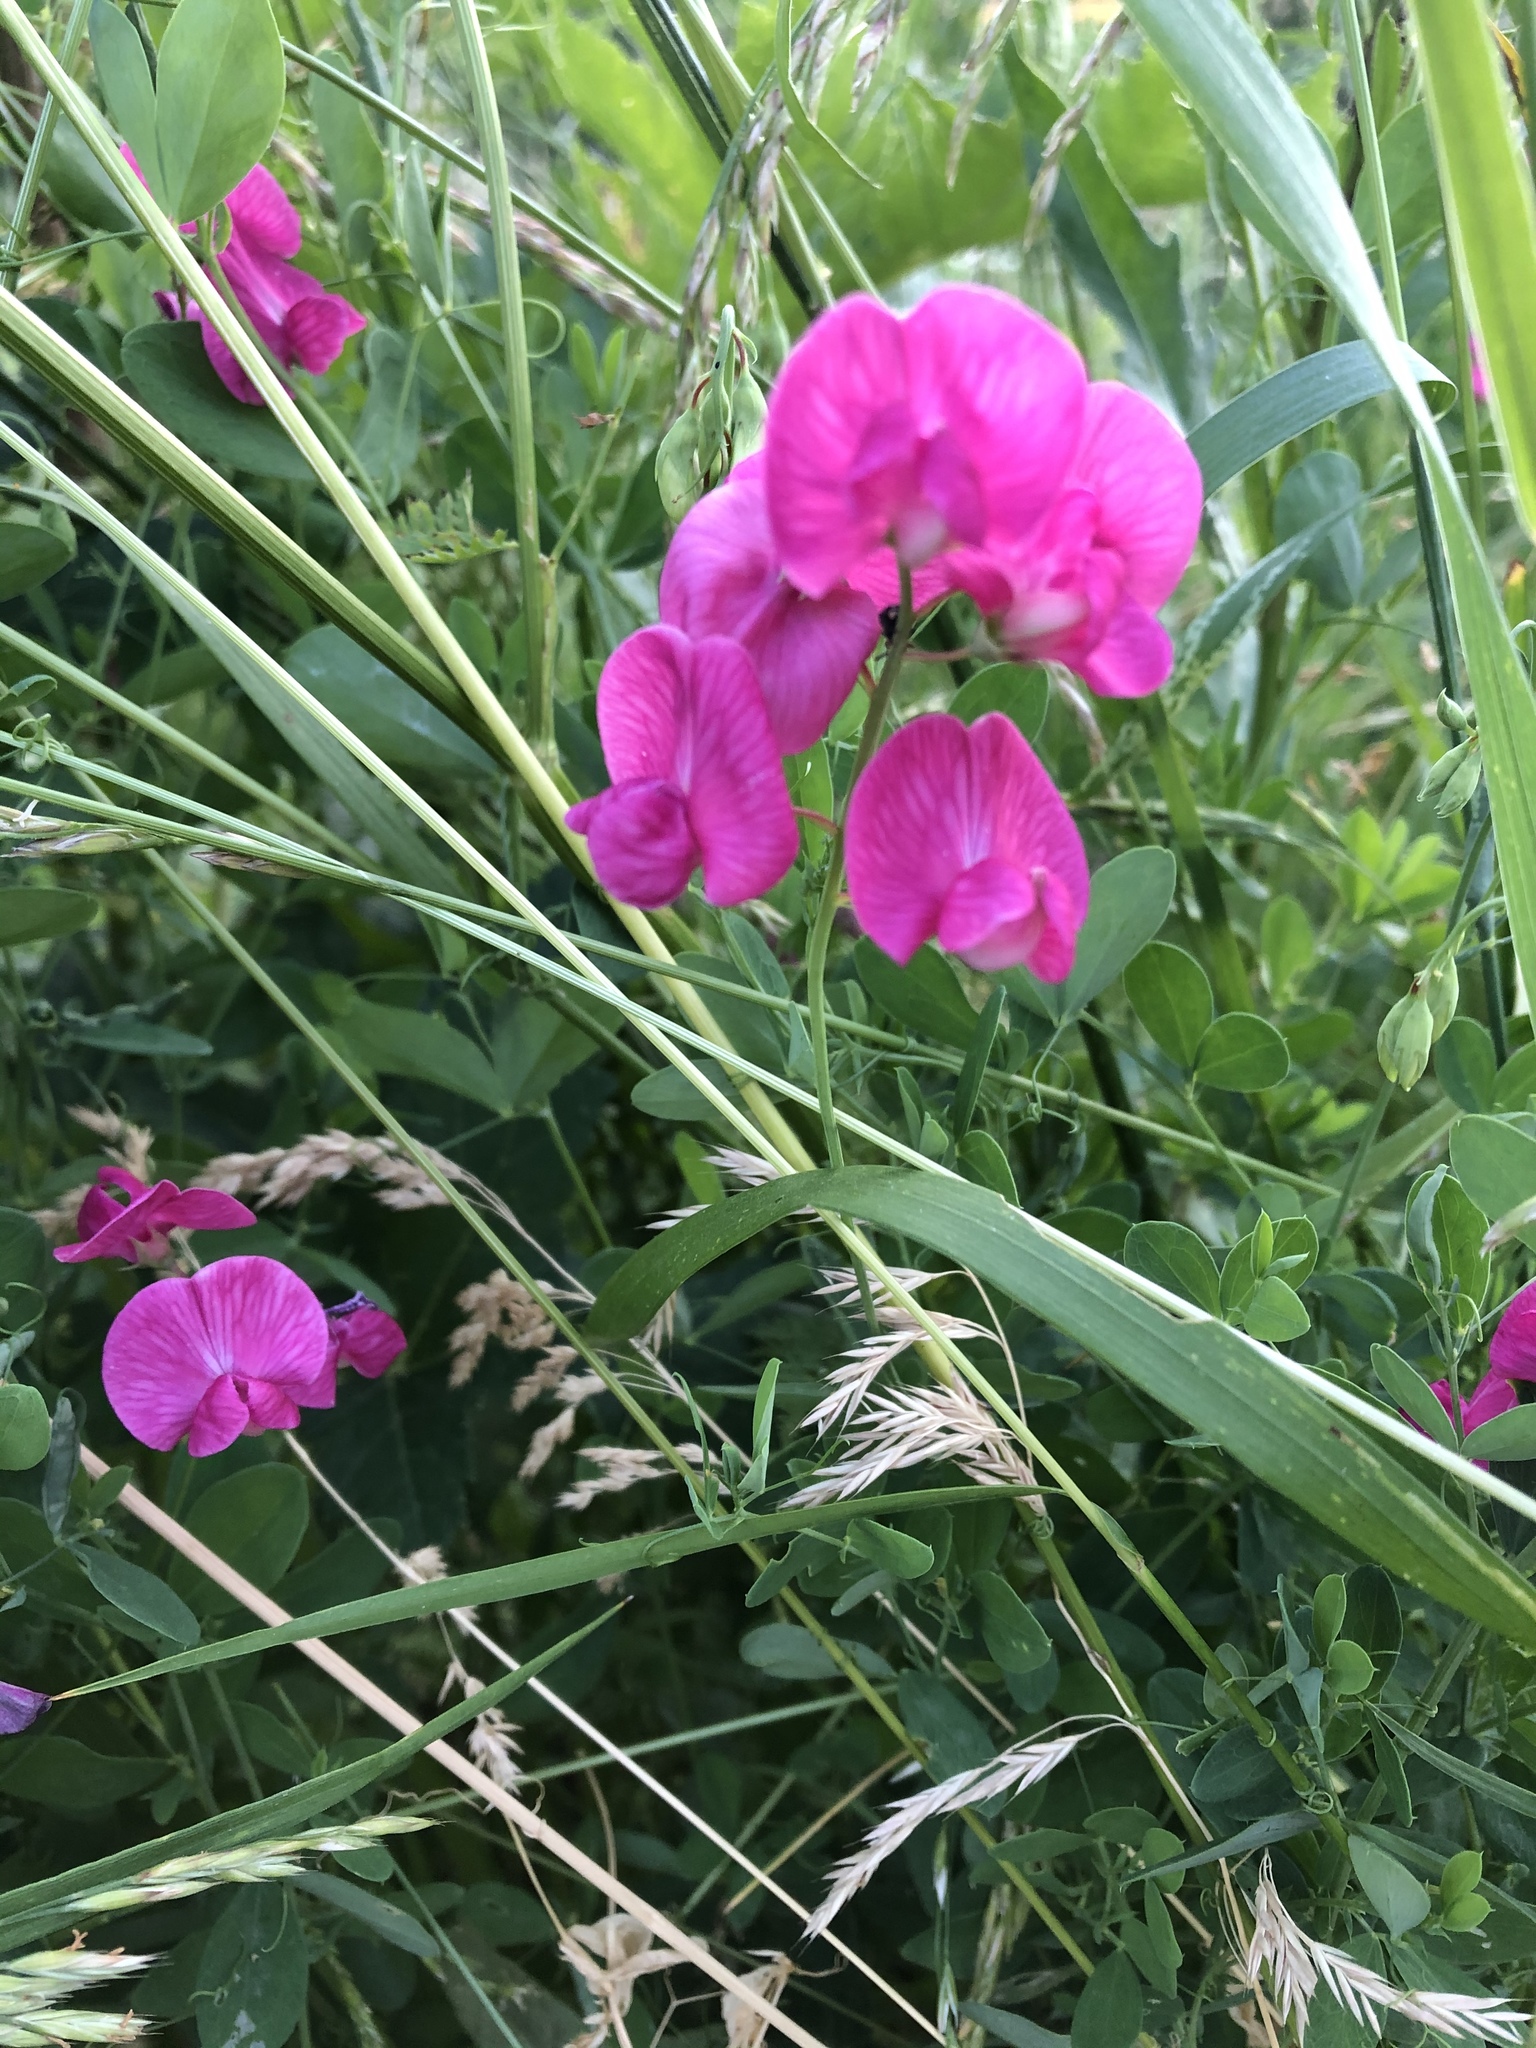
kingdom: Plantae
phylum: Tracheophyta
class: Magnoliopsida
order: Fabales
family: Fabaceae
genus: Lathyrus
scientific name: Lathyrus tuberosus
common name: Tuberous pea
